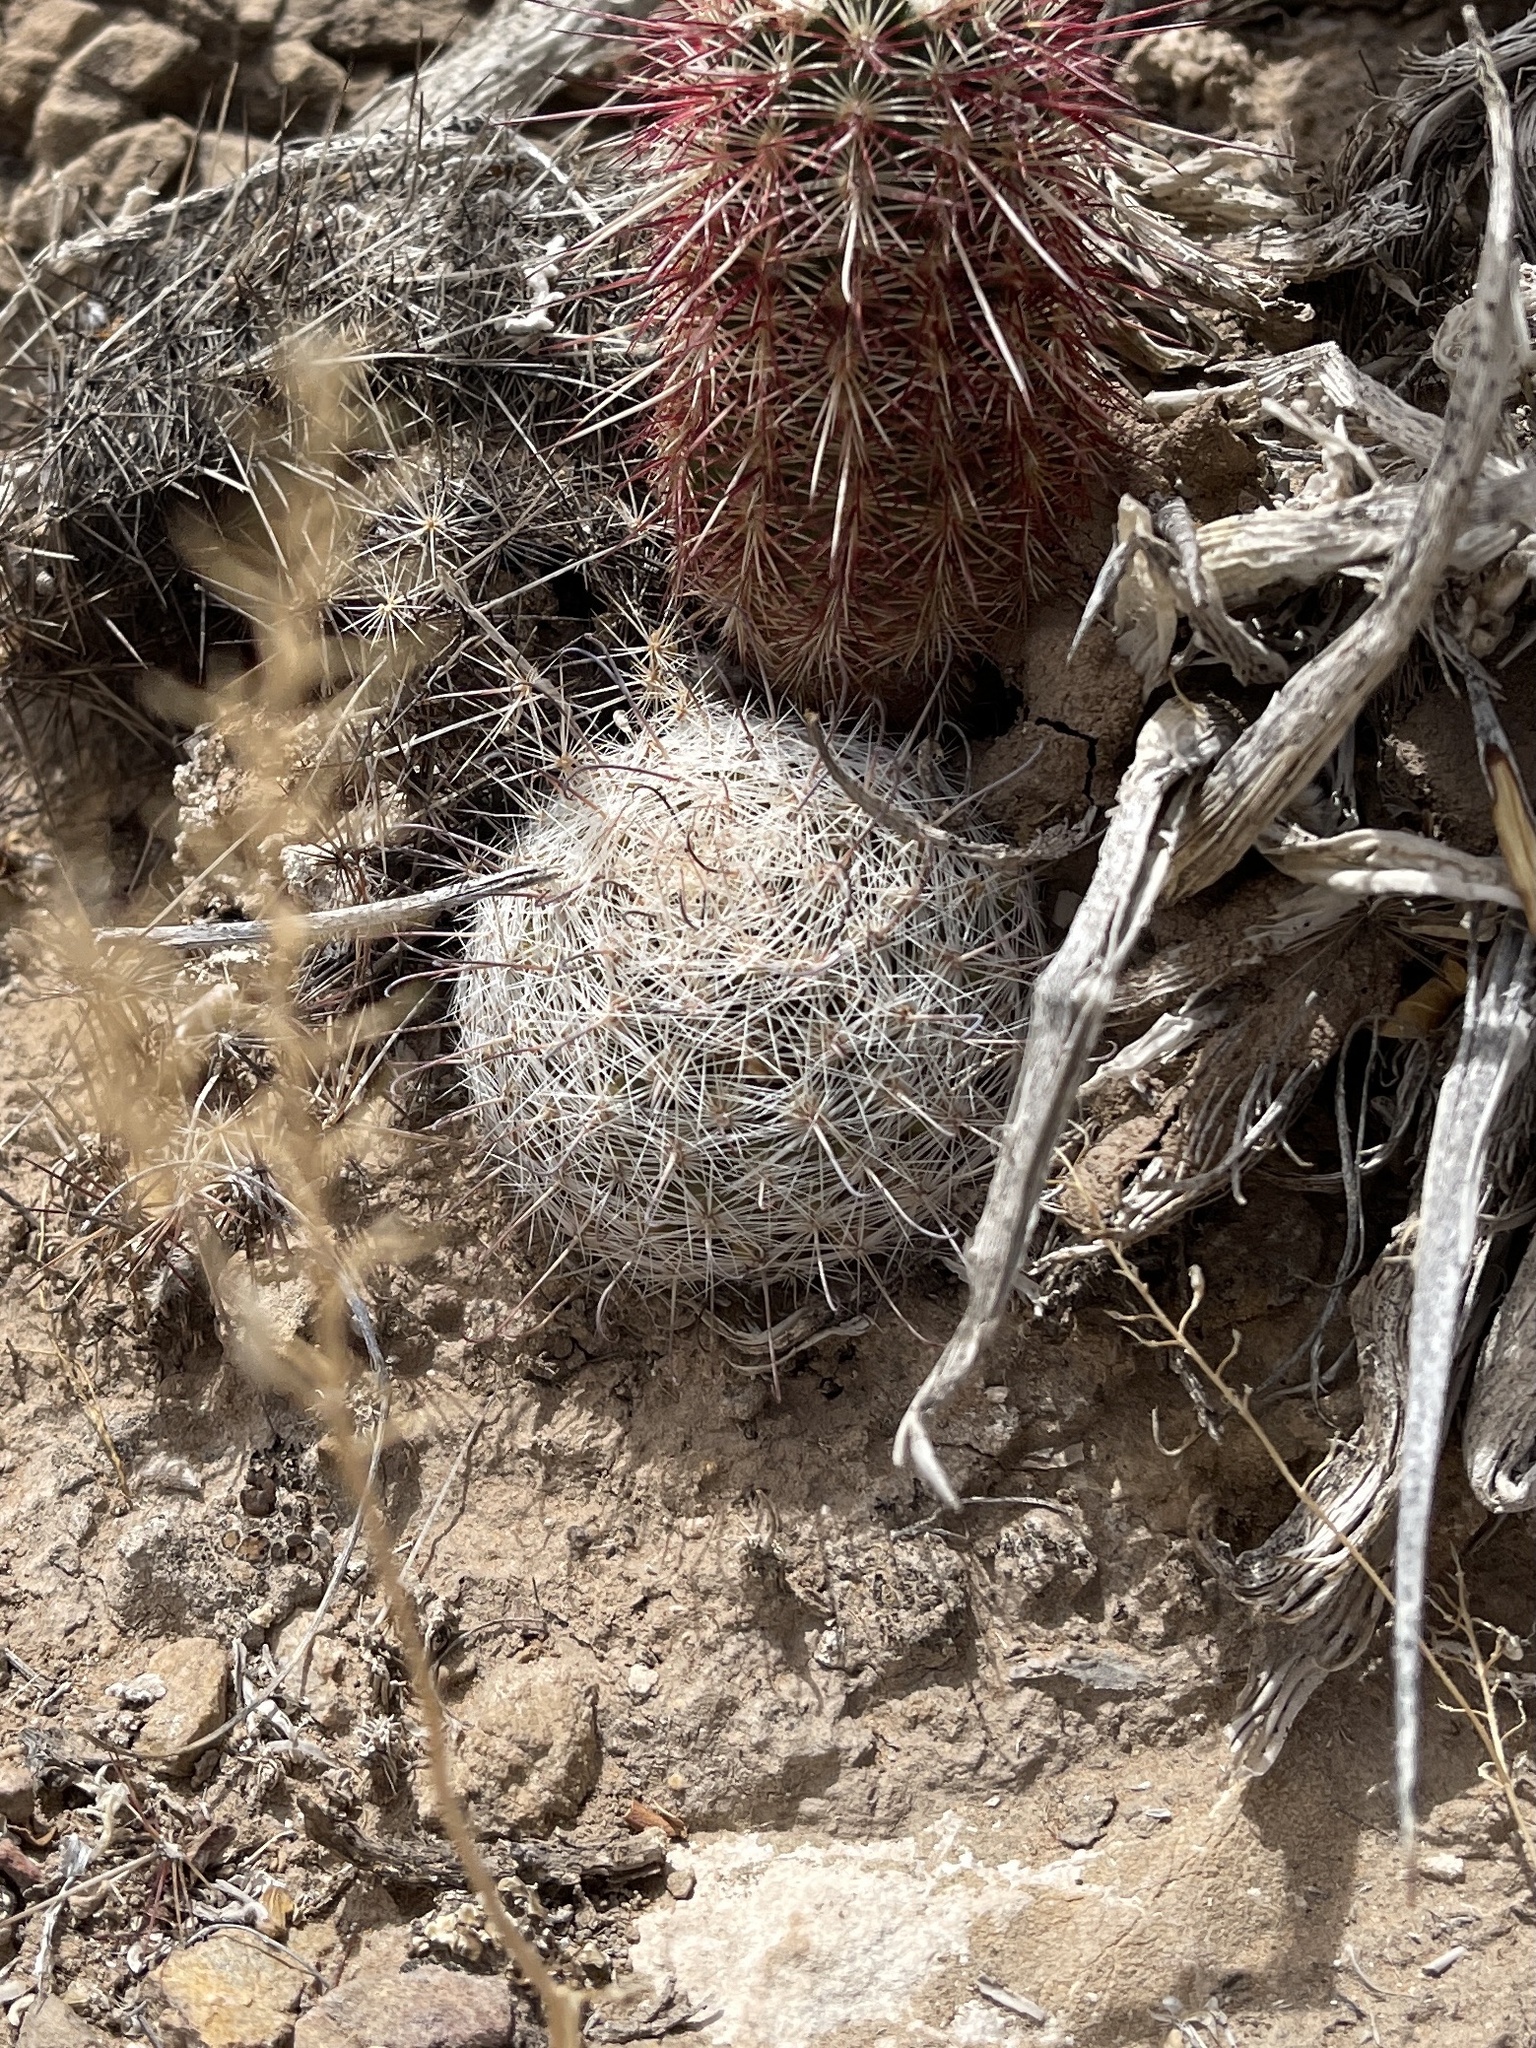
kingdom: Plantae
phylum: Tracheophyta
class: Magnoliopsida
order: Caryophyllales
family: Cactaceae
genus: Cochemiea
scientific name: Cochemiea grahamii
